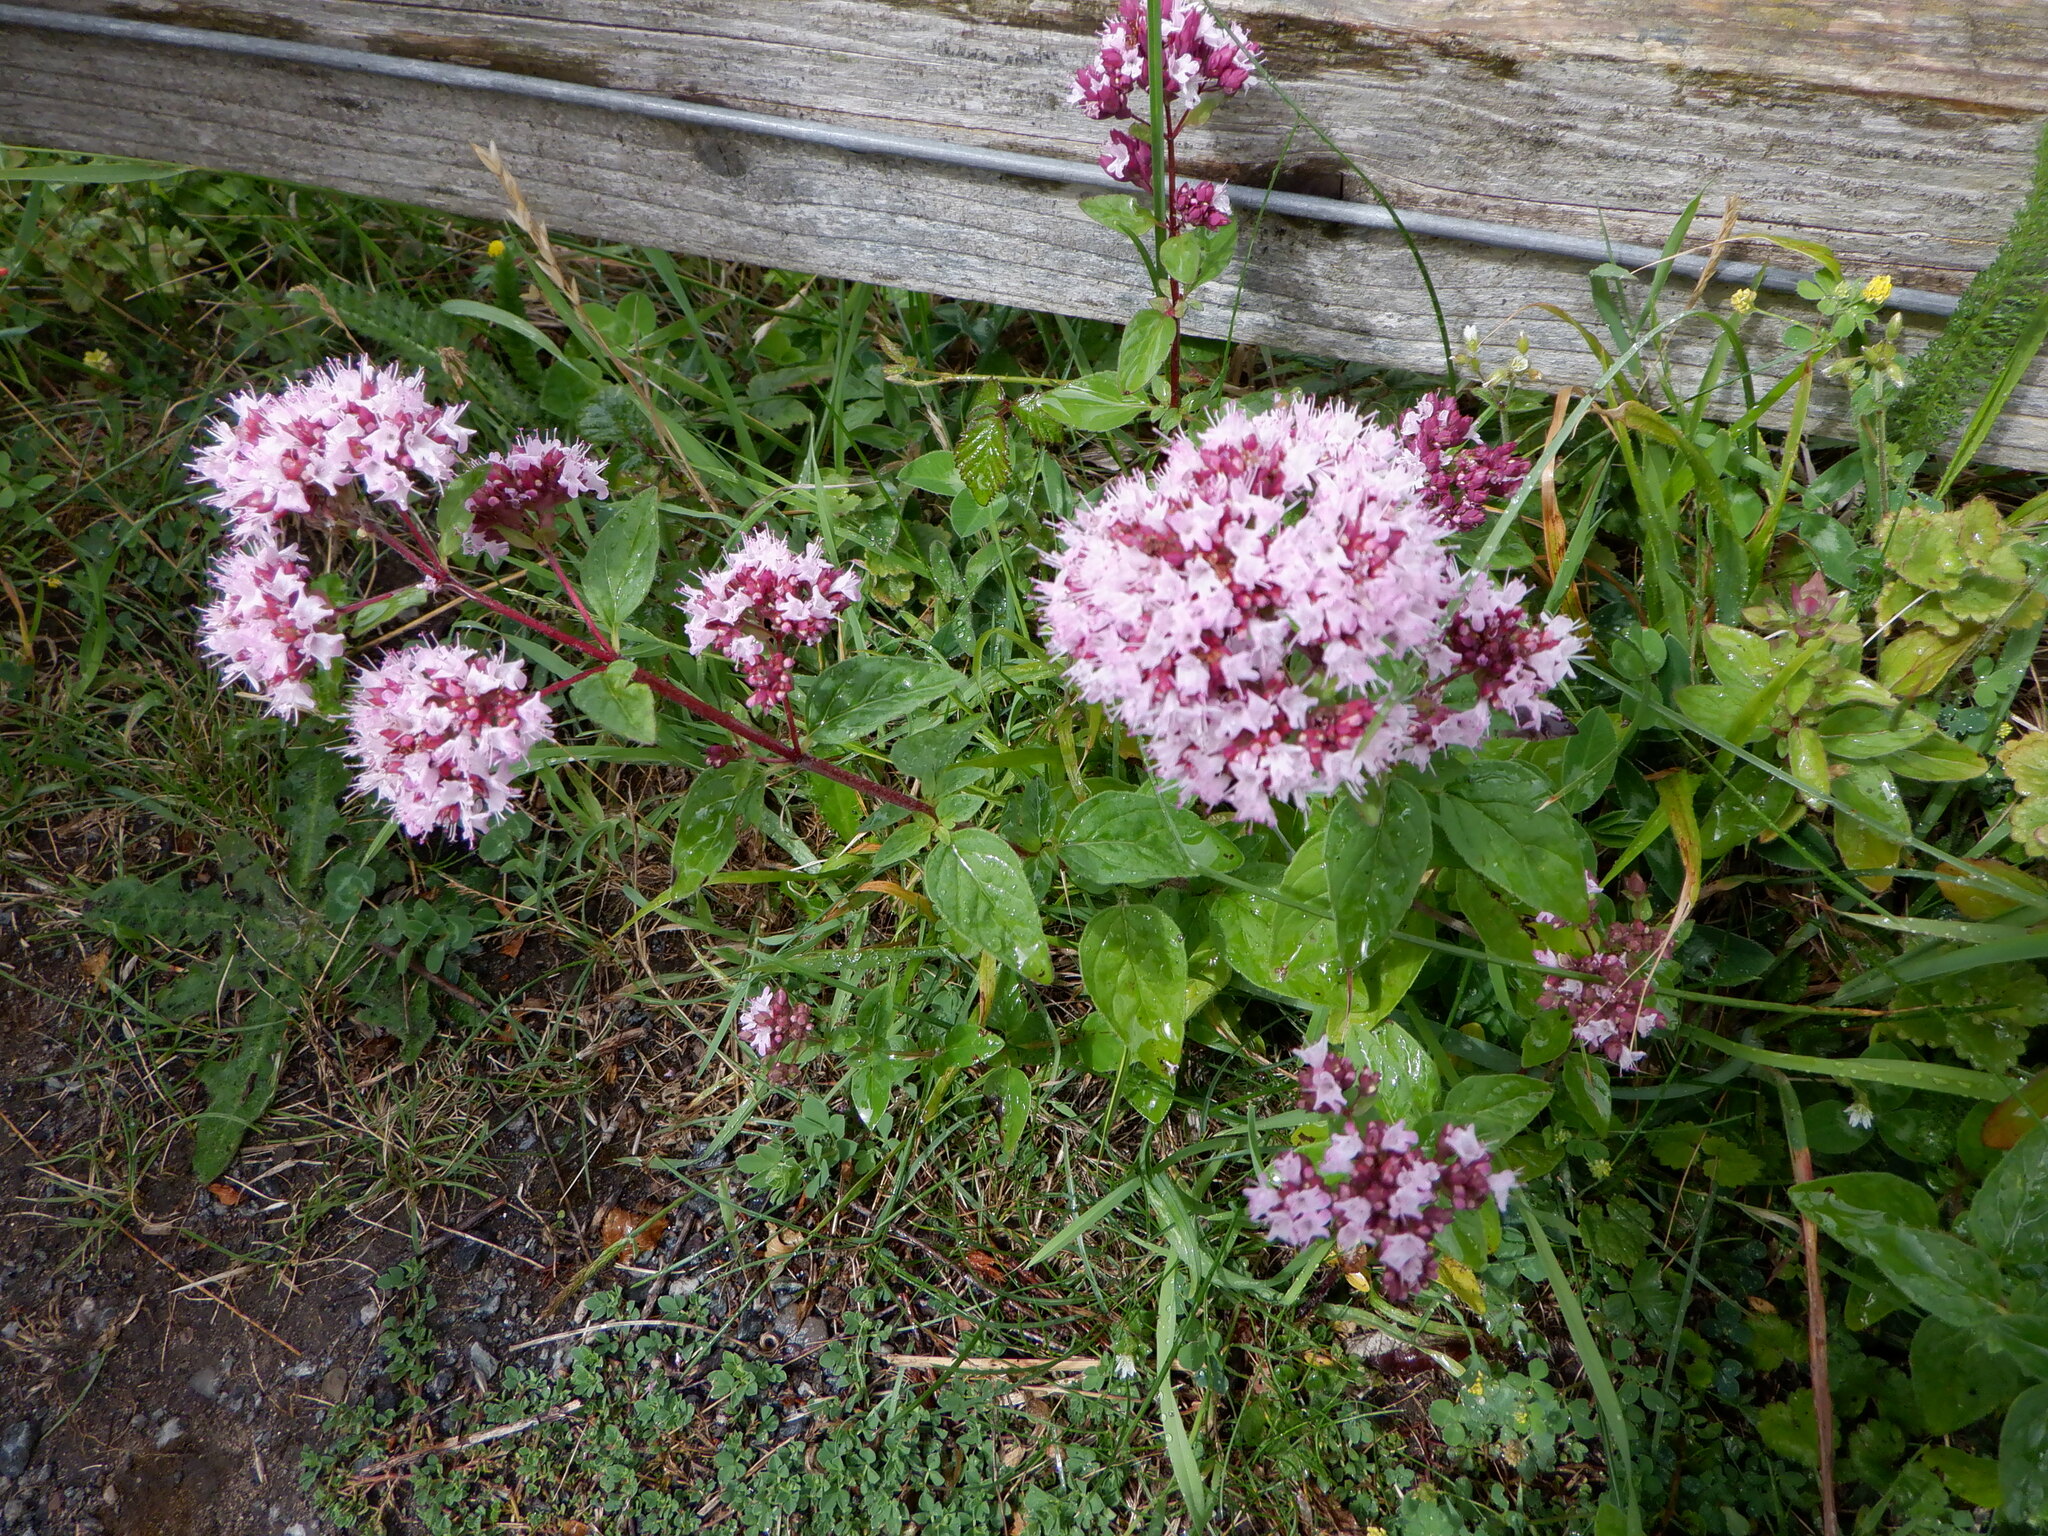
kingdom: Plantae
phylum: Tracheophyta
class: Magnoliopsida
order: Lamiales
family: Lamiaceae
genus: Origanum
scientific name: Origanum vulgare
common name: Wild marjoram
